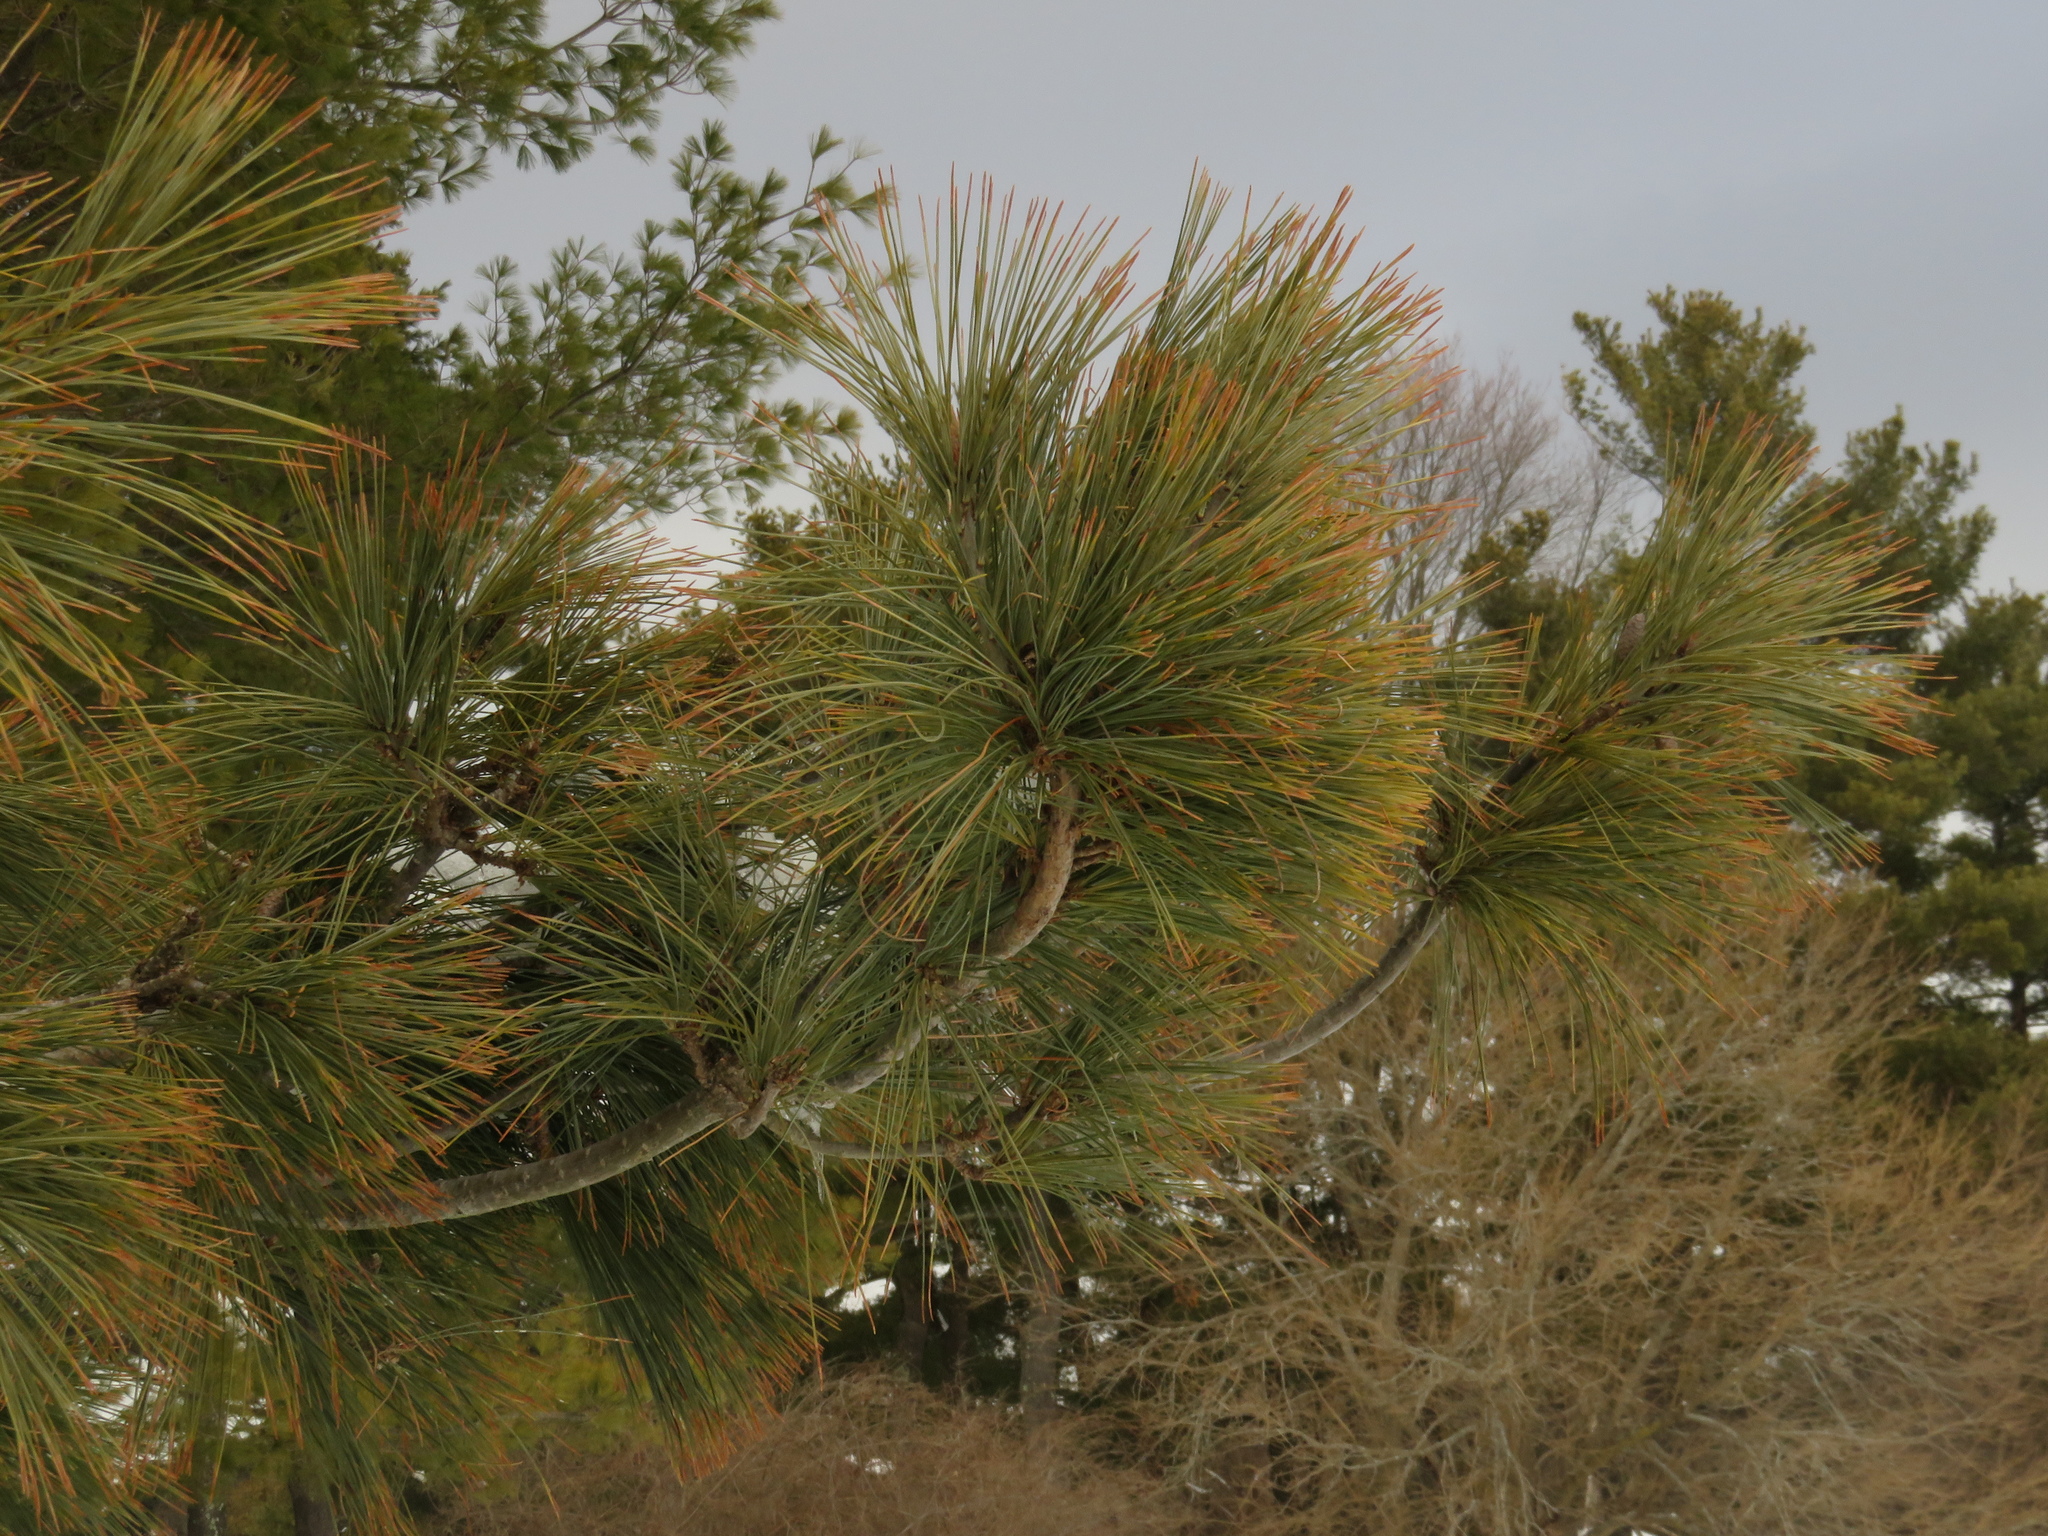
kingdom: Plantae
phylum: Tracheophyta
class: Pinopsida
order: Pinales
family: Pinaceae
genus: Pinus
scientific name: Pinus strobus
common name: Weymouth pine
